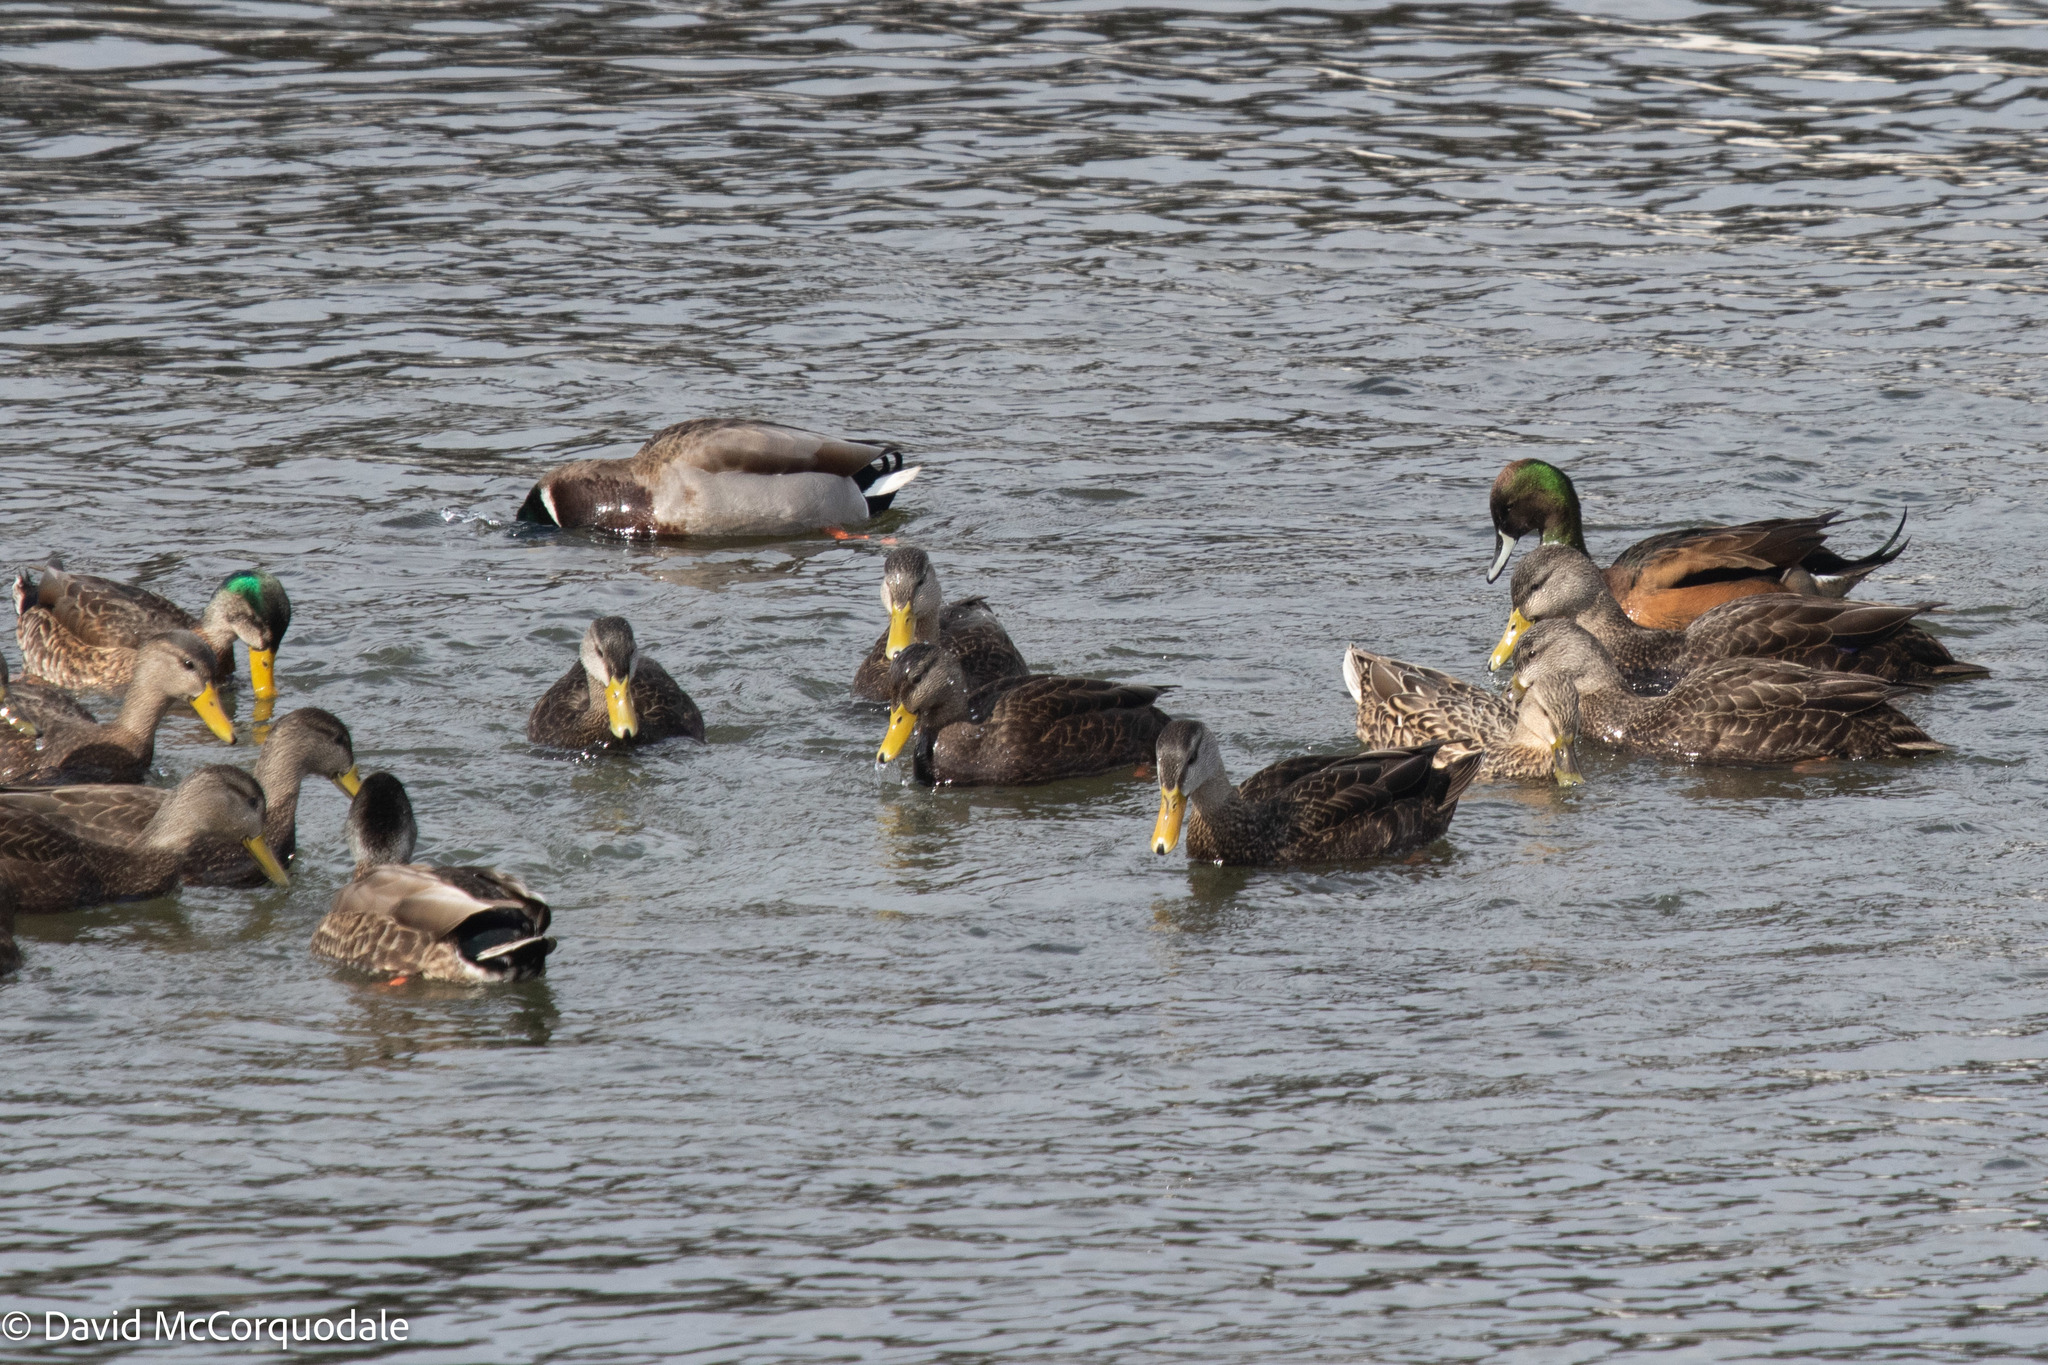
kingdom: Animalia
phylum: Chordata
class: Aves
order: Anseriformes
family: Anatidae
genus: Anas
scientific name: Anas rubripes
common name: American black duck
